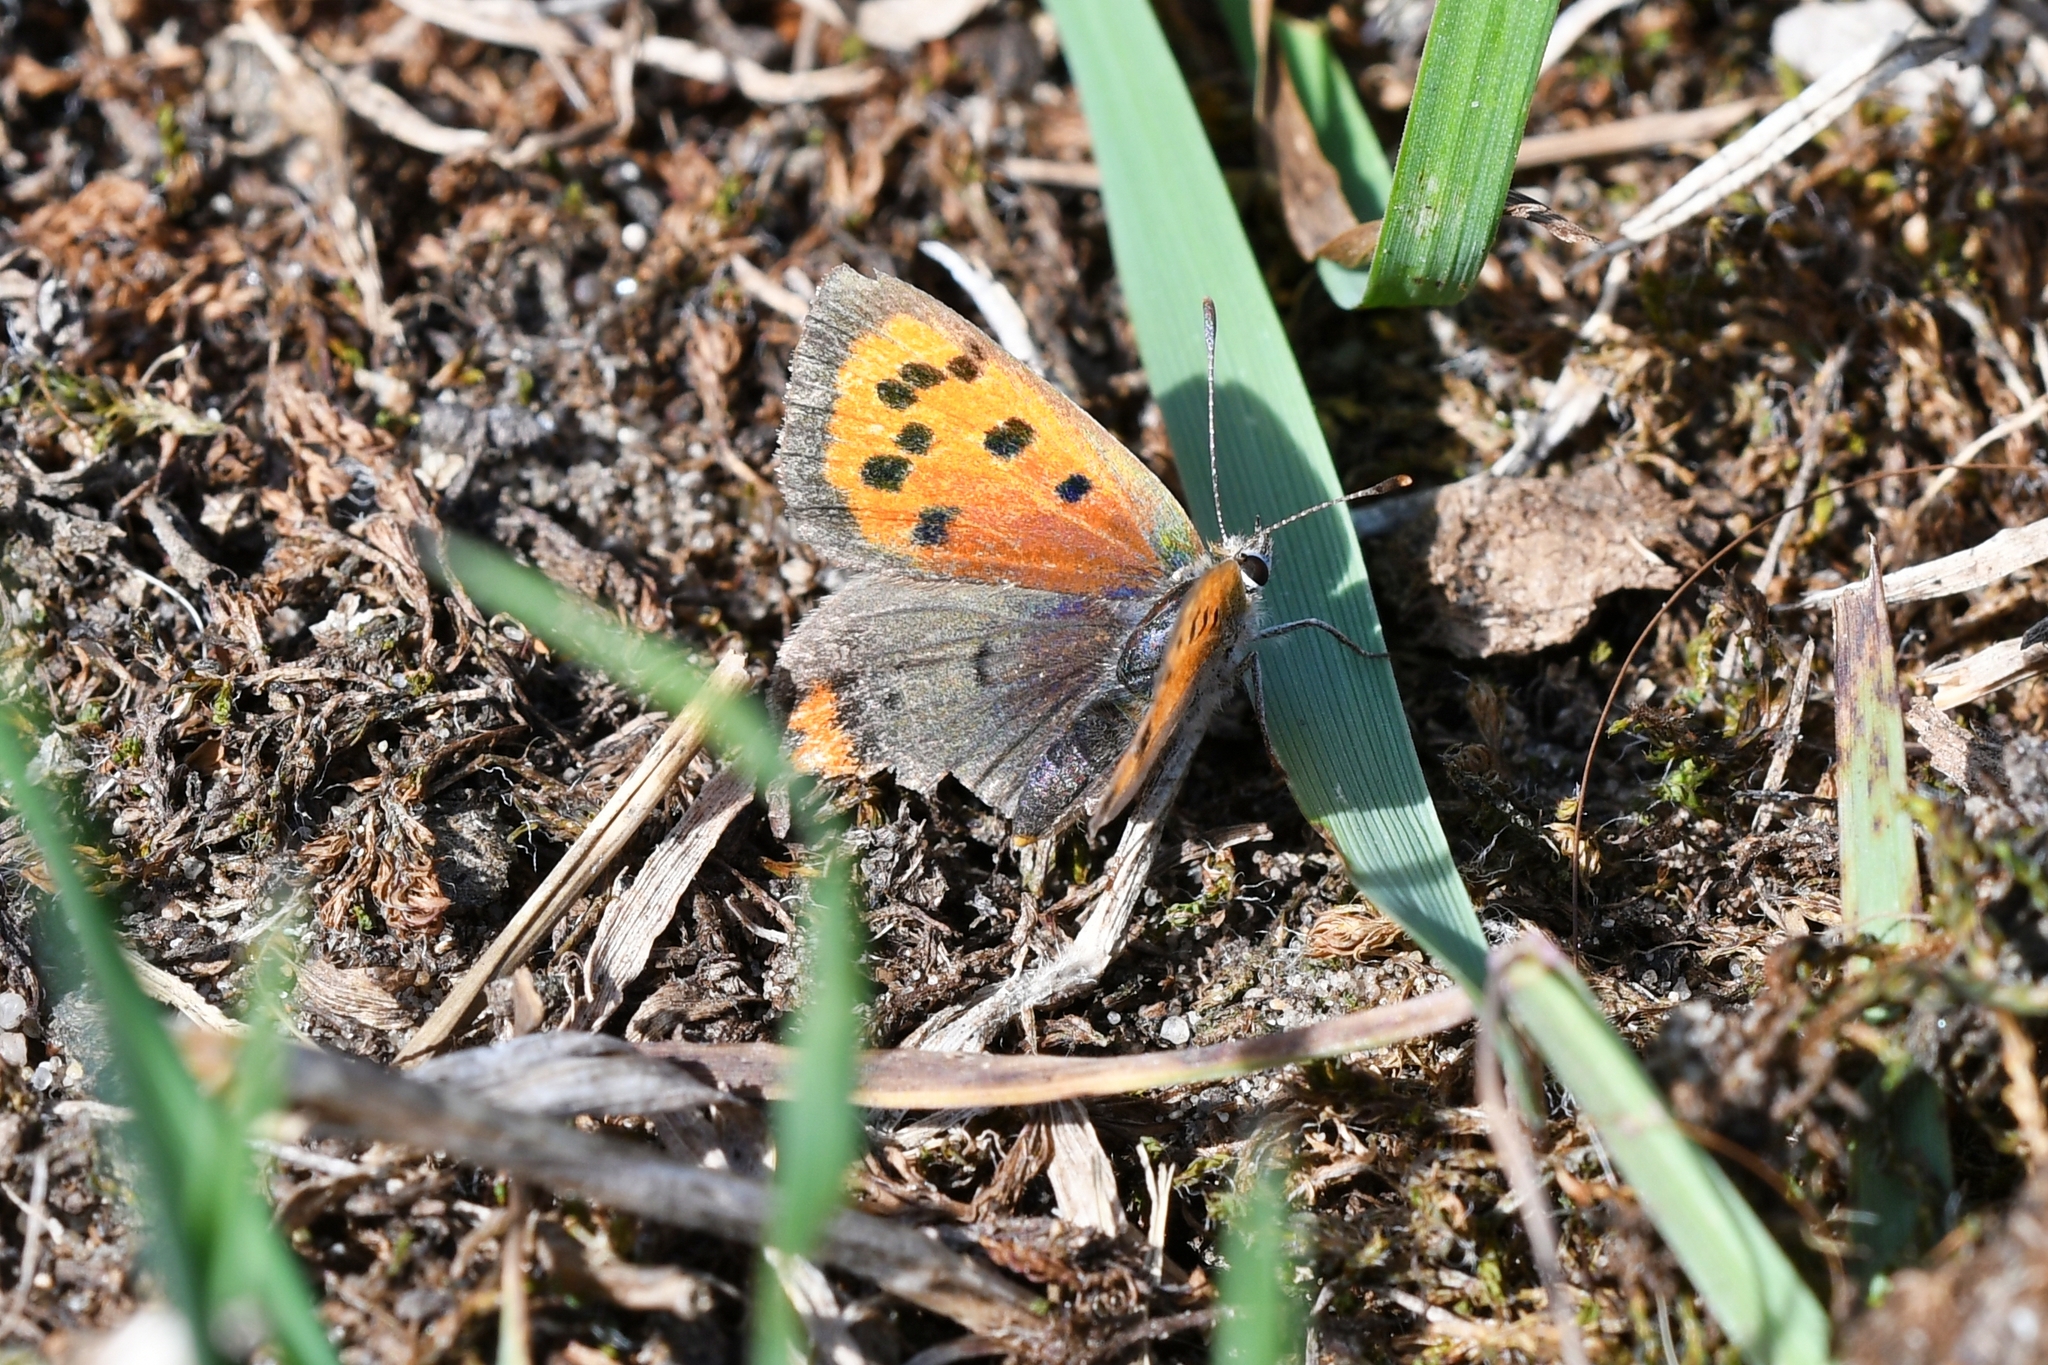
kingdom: Animalia
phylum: Arthropoda
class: Insecta
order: Lepidoptera
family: Lycaenidae
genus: Lycaena
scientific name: Lycaena phlaeas
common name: Small copper
